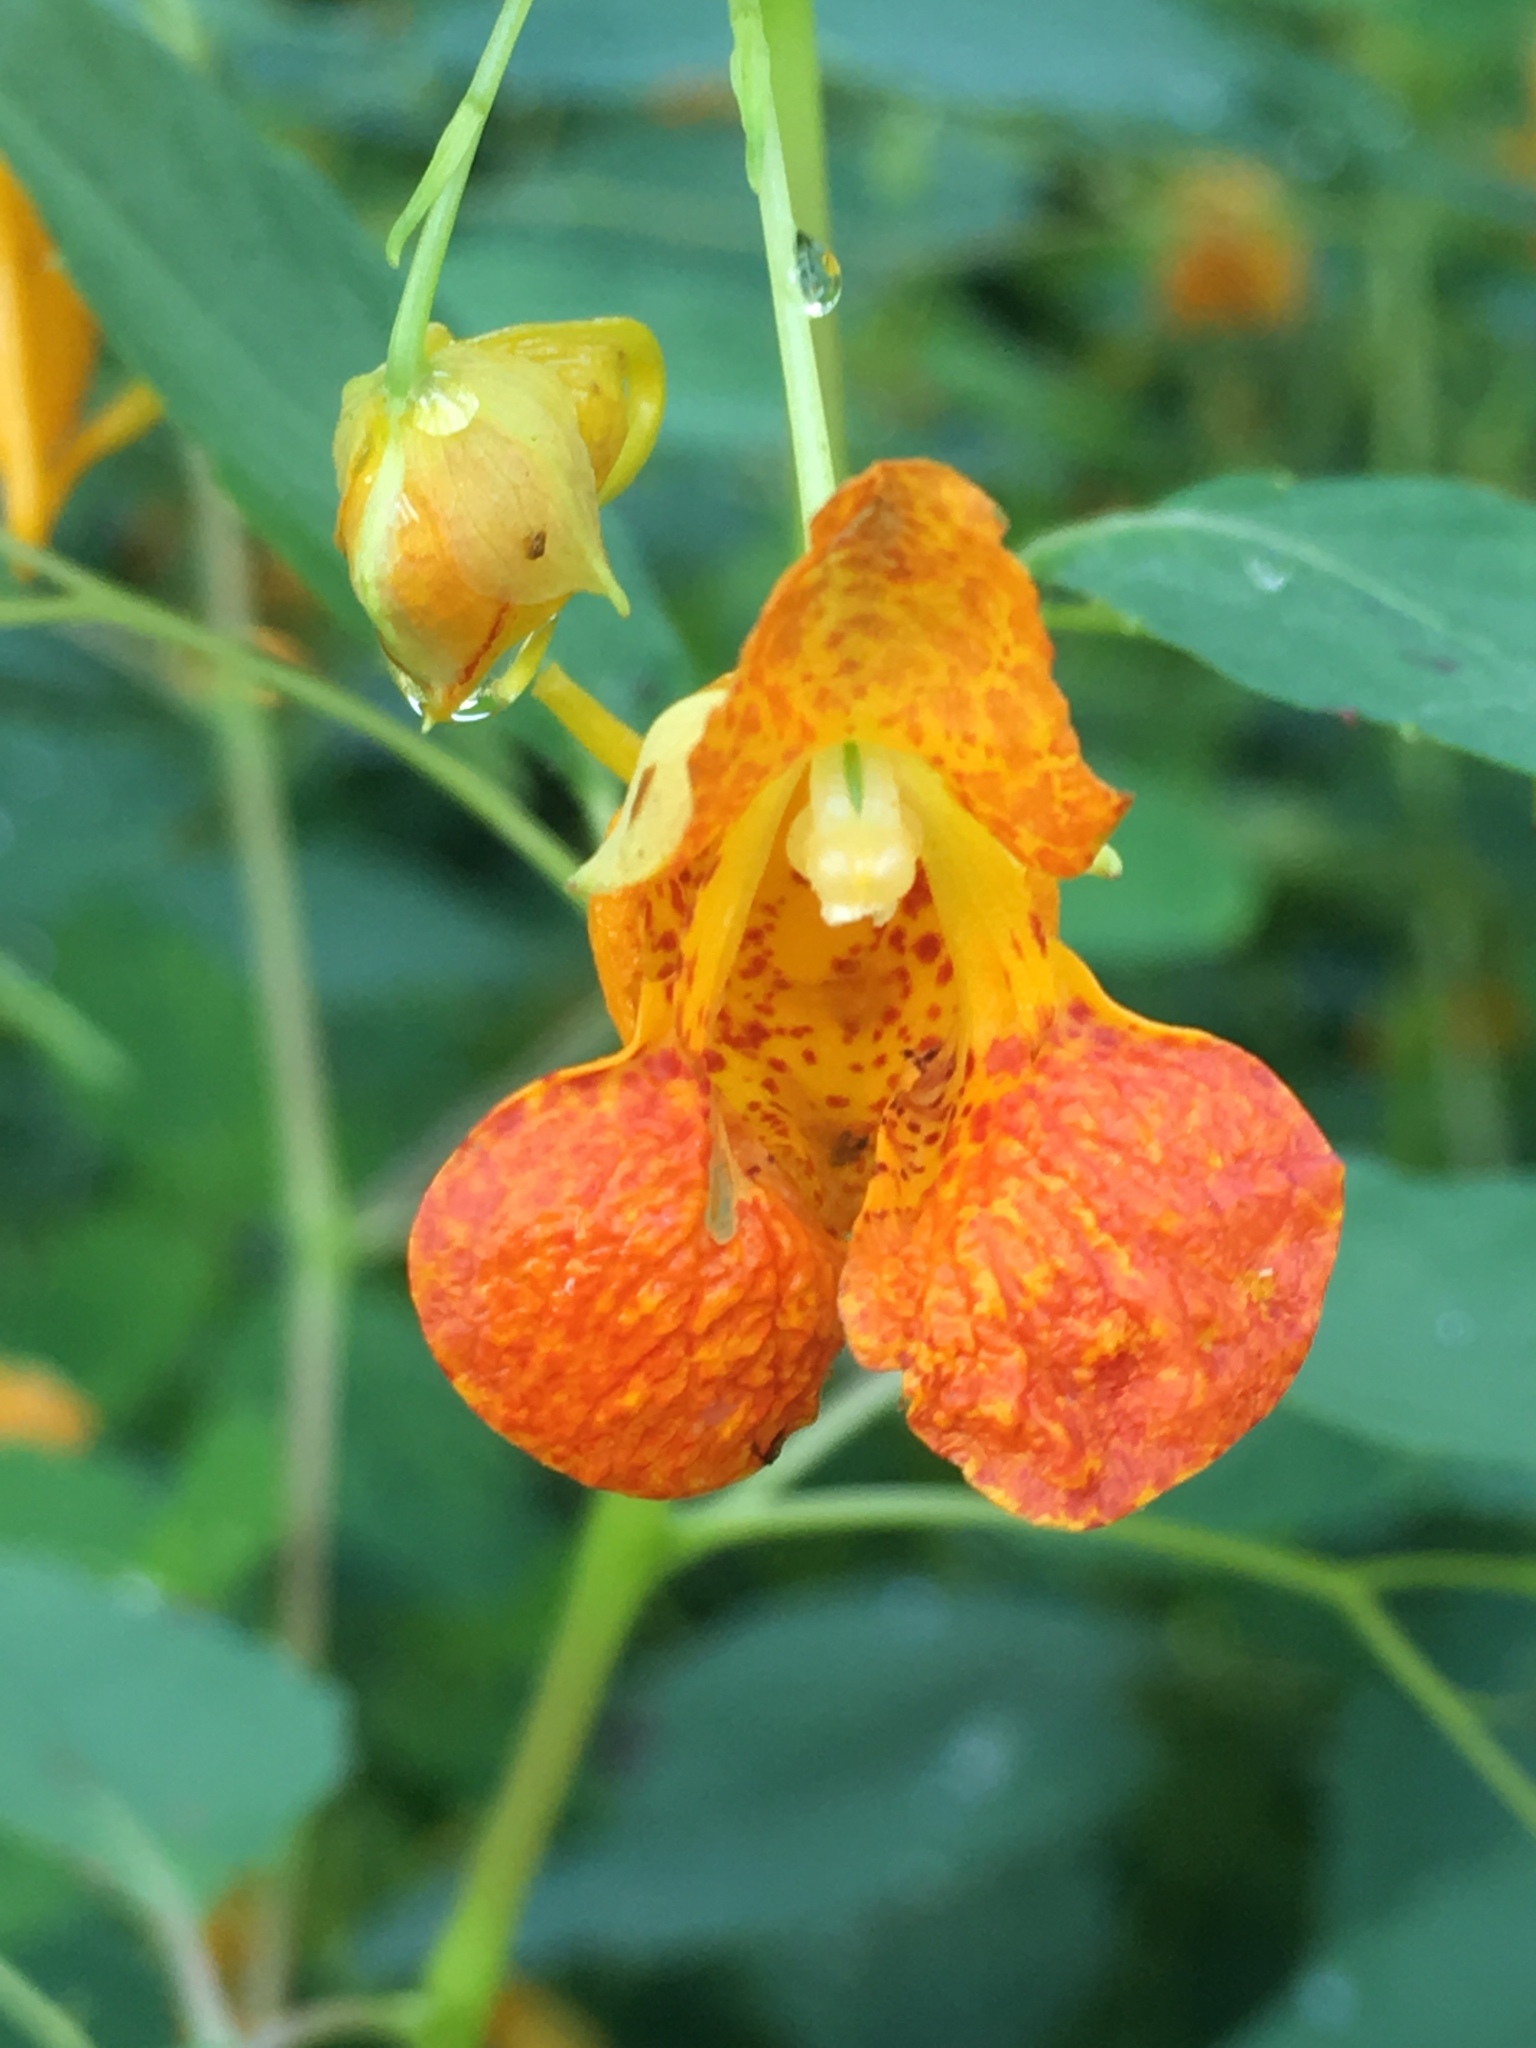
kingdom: Plantae
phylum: Tracheophyta
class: Magnoliopsida
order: Ericales
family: Balsaminaceae
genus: Impatiens
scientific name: Impatiens capensis
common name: Orange balsam
